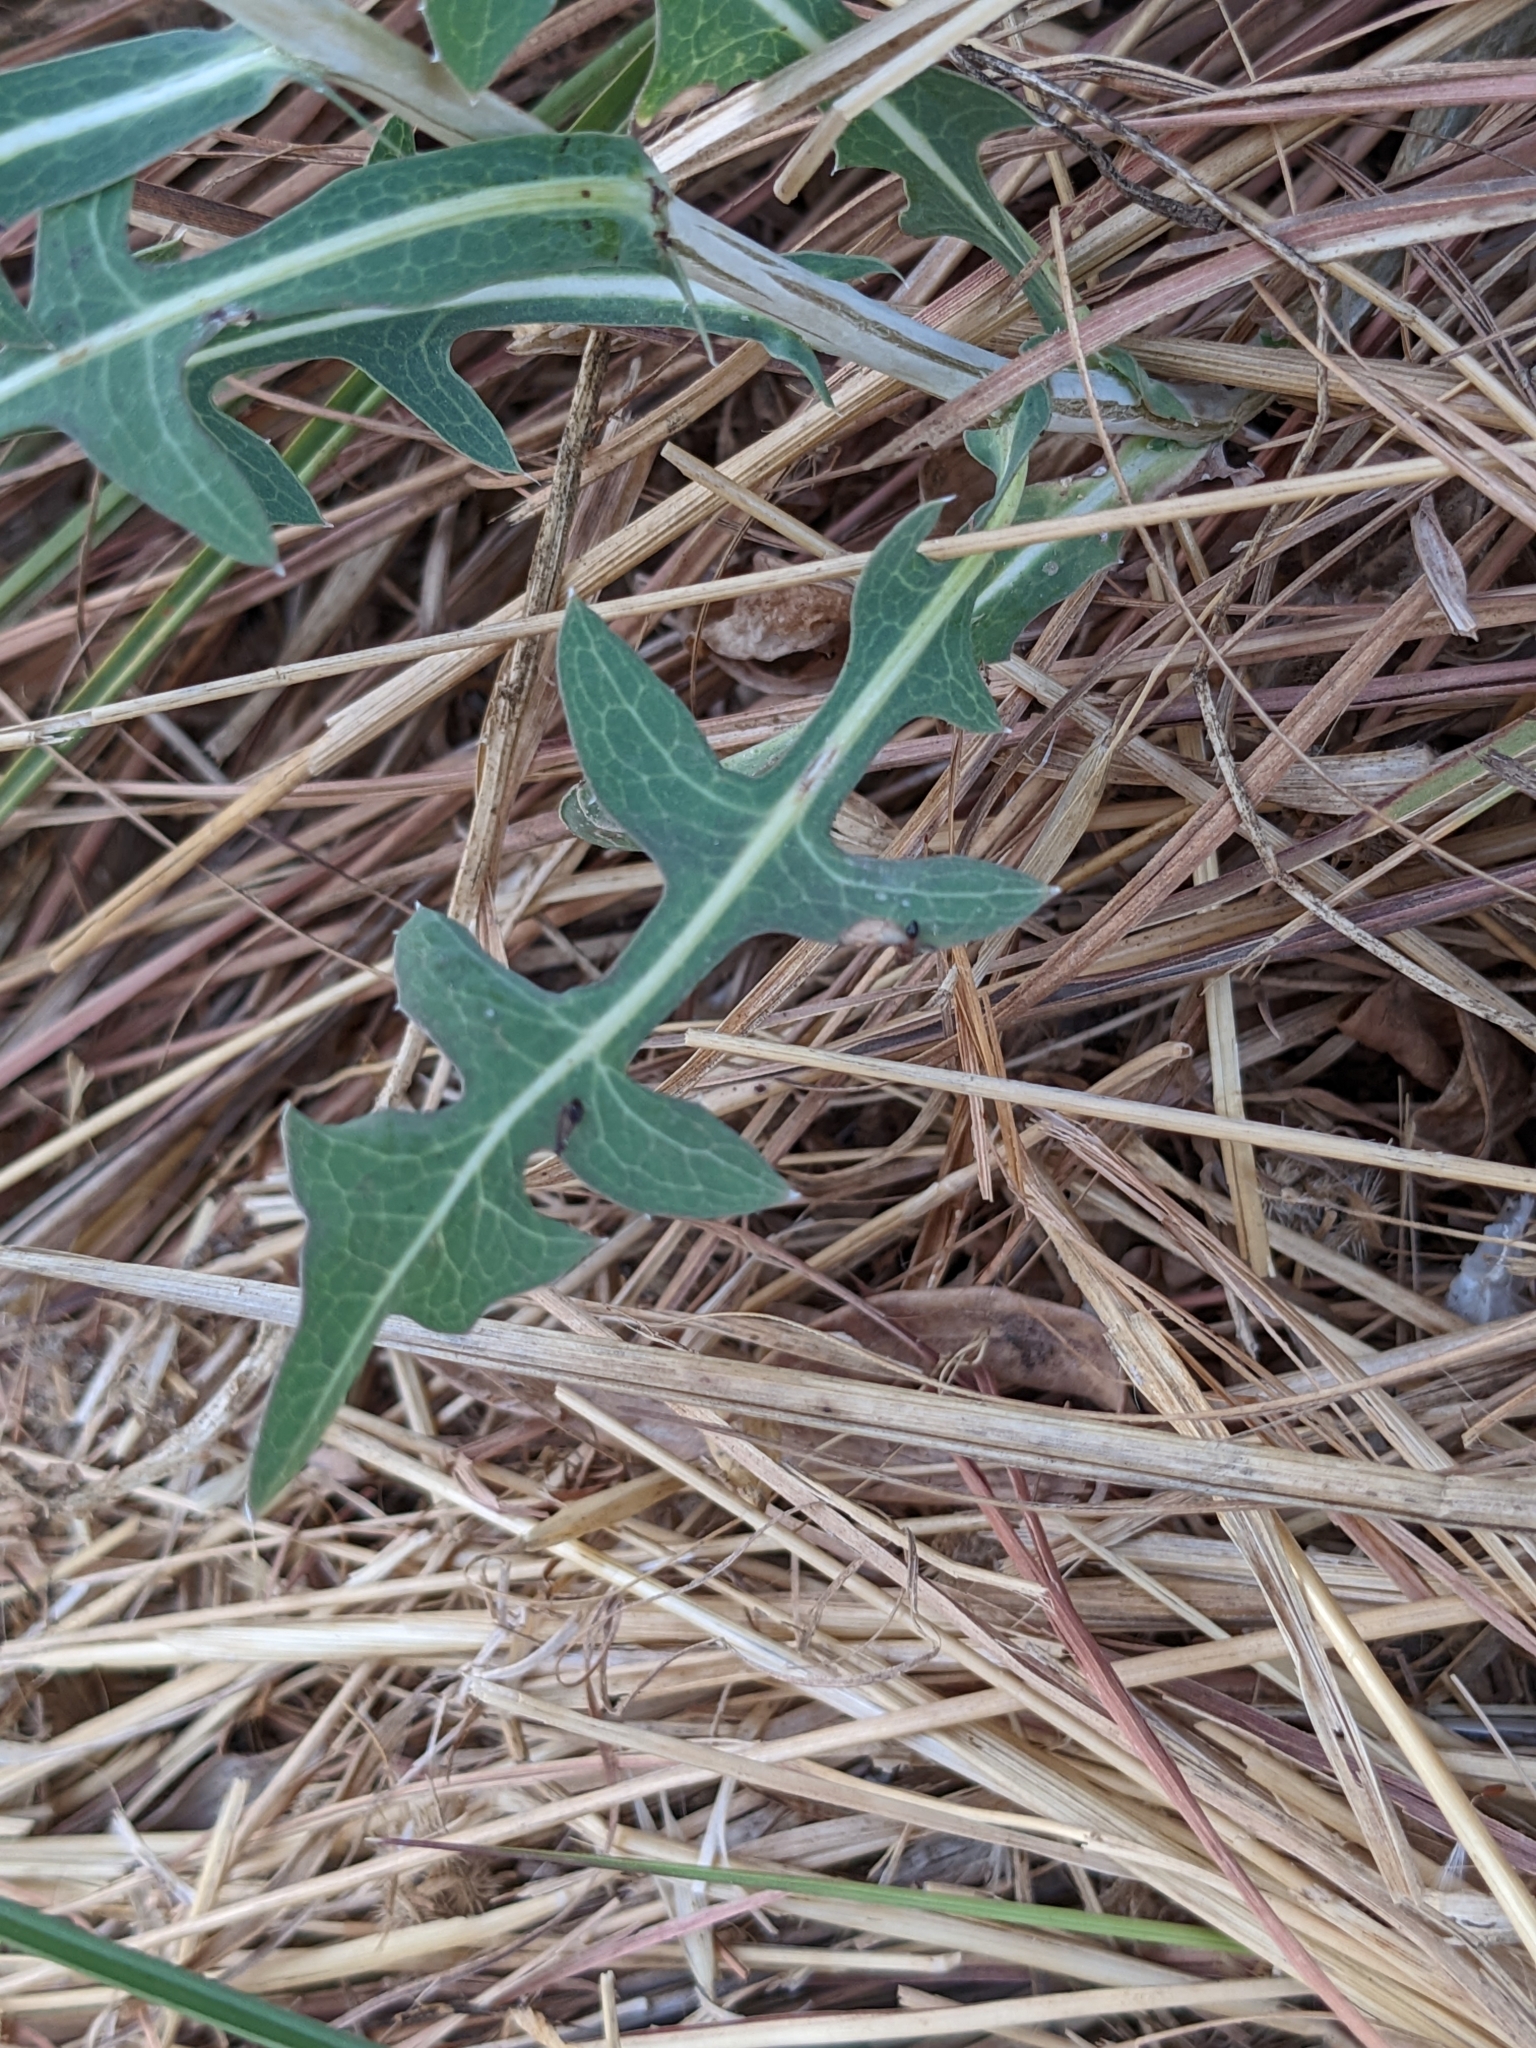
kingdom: Plantae
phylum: Tracheophyta
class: Magnoliopsida
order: Asterales
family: Asteraceae
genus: Lactuca
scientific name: Lactuca saligna
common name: Wild lettuce
